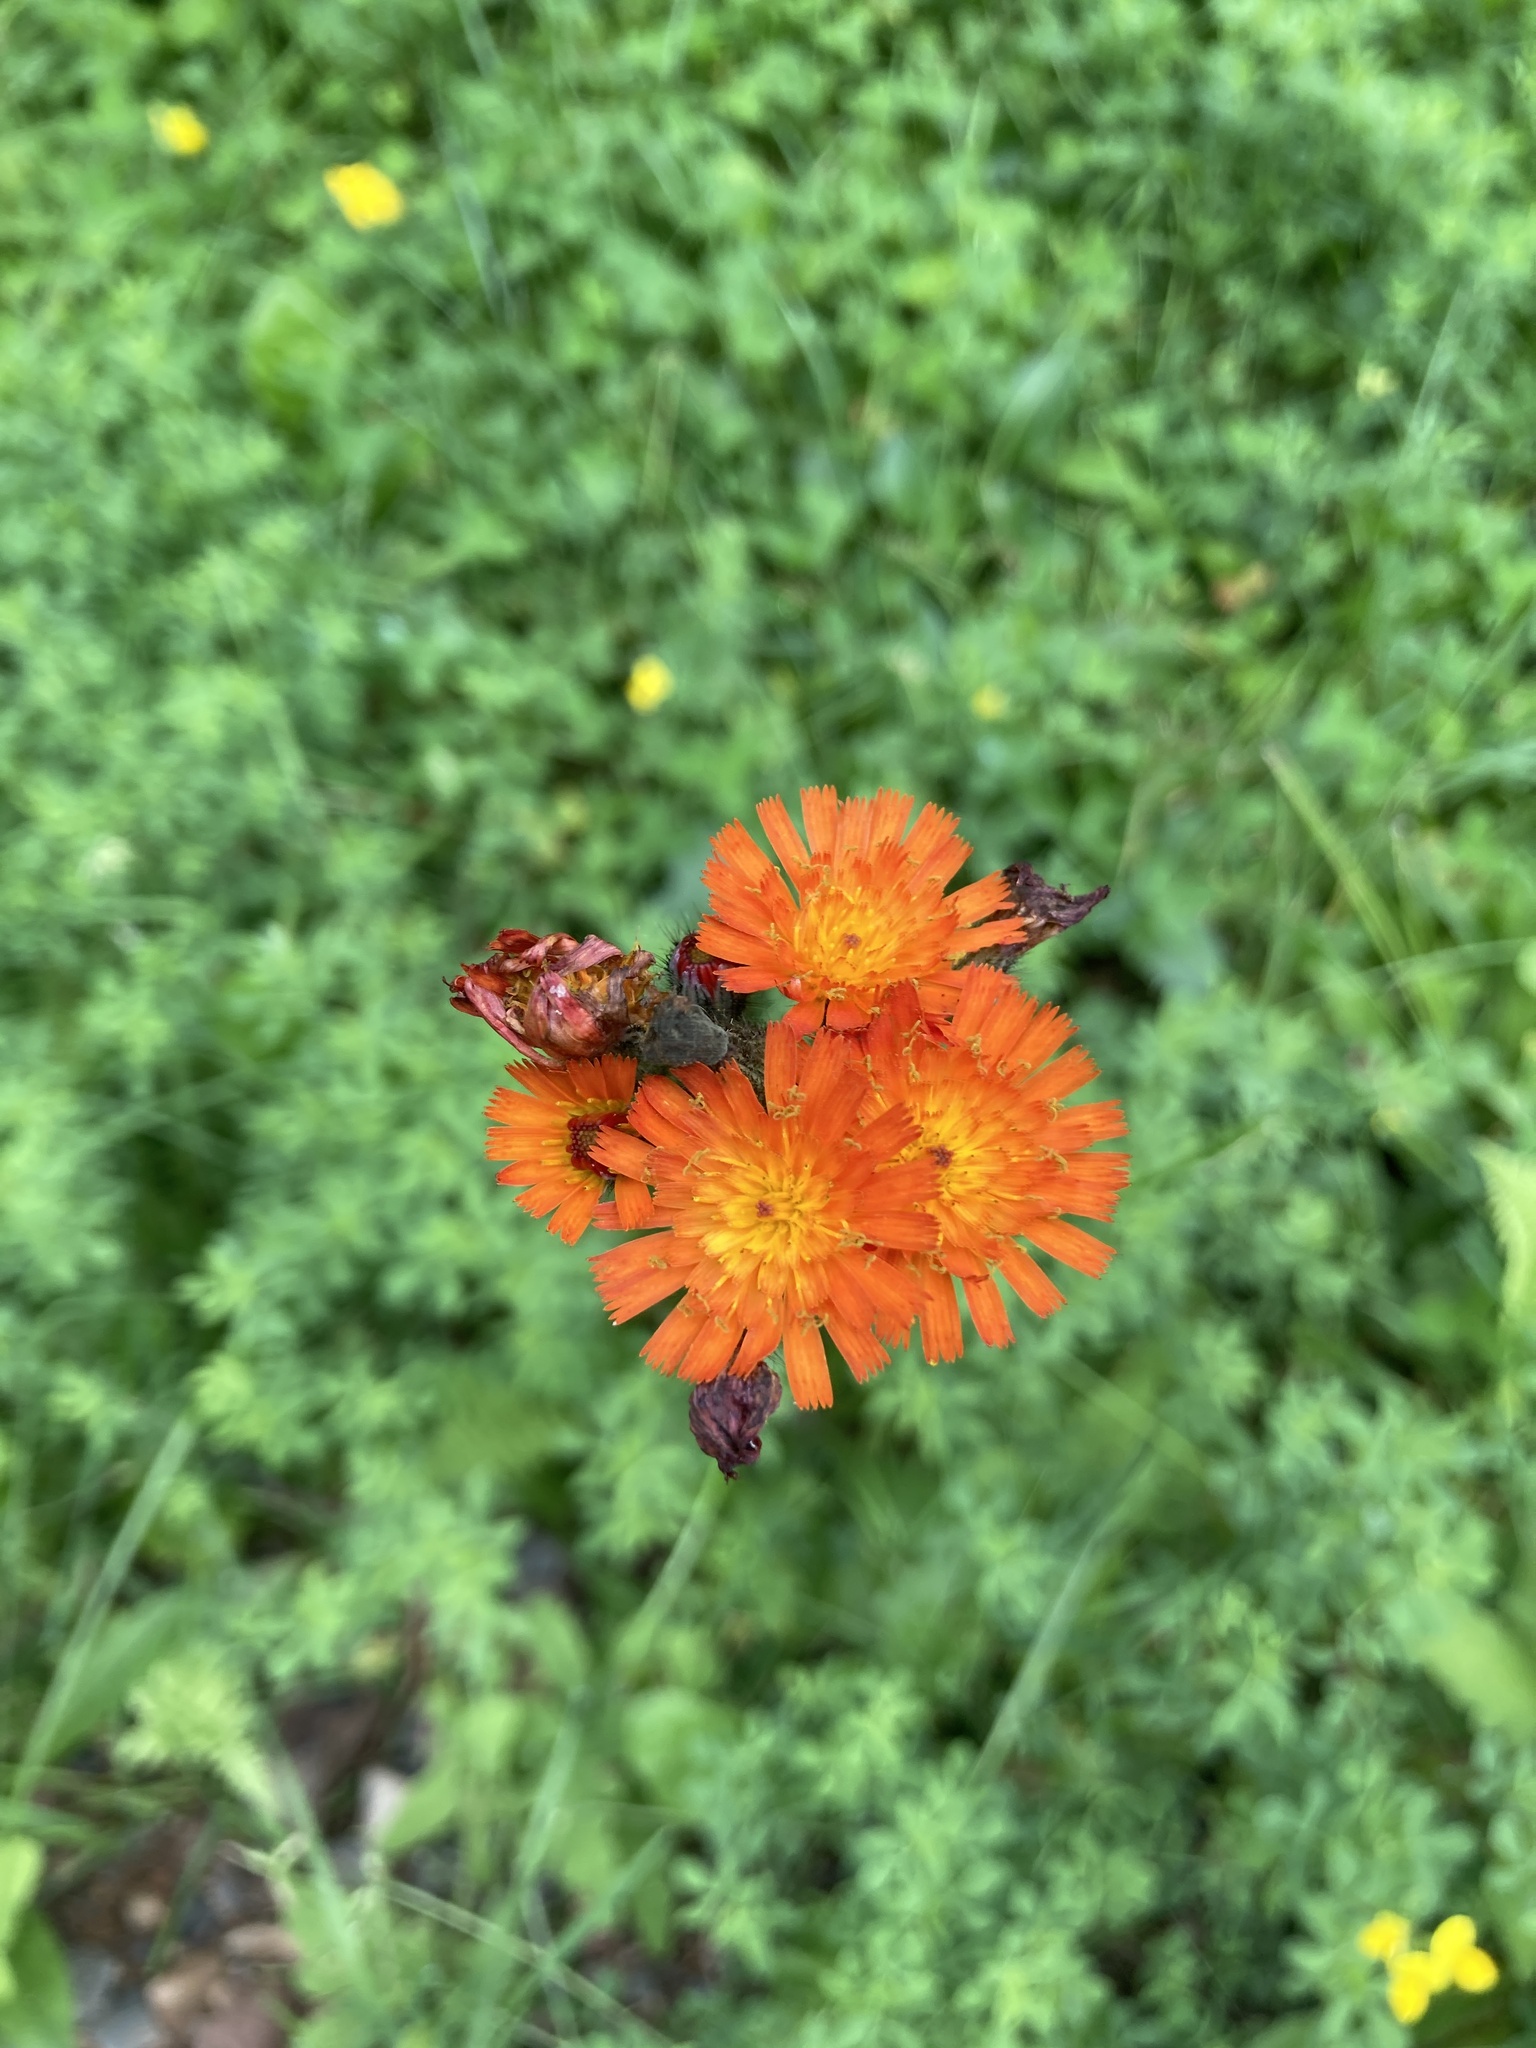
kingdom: Plantae
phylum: Tracheophyta
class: Magnoliopsida
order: Asterales
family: Asteraceae
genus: Pilosella
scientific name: Pilosella aurantiaca
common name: Fox-and-cubs
